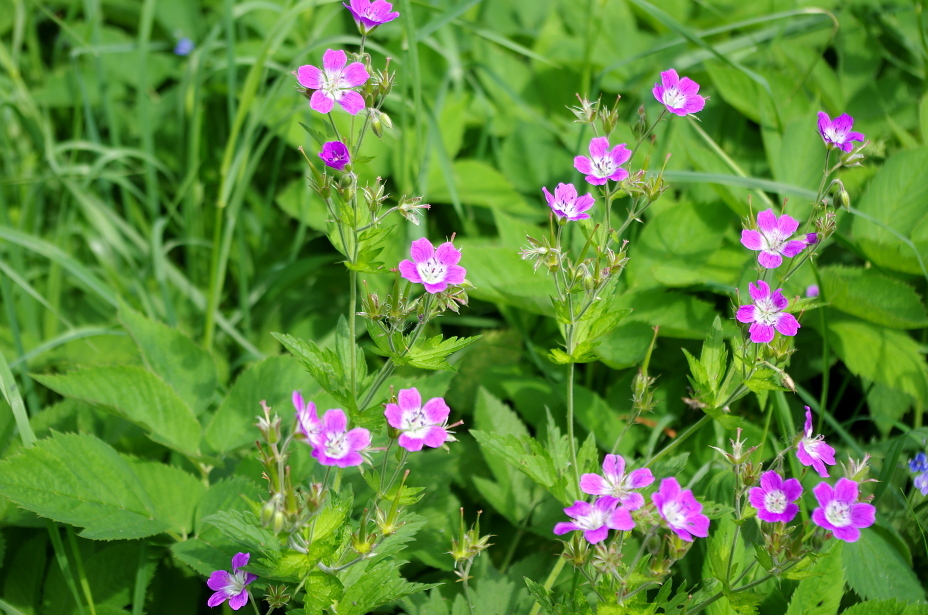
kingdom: Plantae
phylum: Tracheophyta
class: Magnoliopsida
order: Geraniales
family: Geraniaceae
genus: Geranium
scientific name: Geranium sylvaticum
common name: Wood crane's-bill
